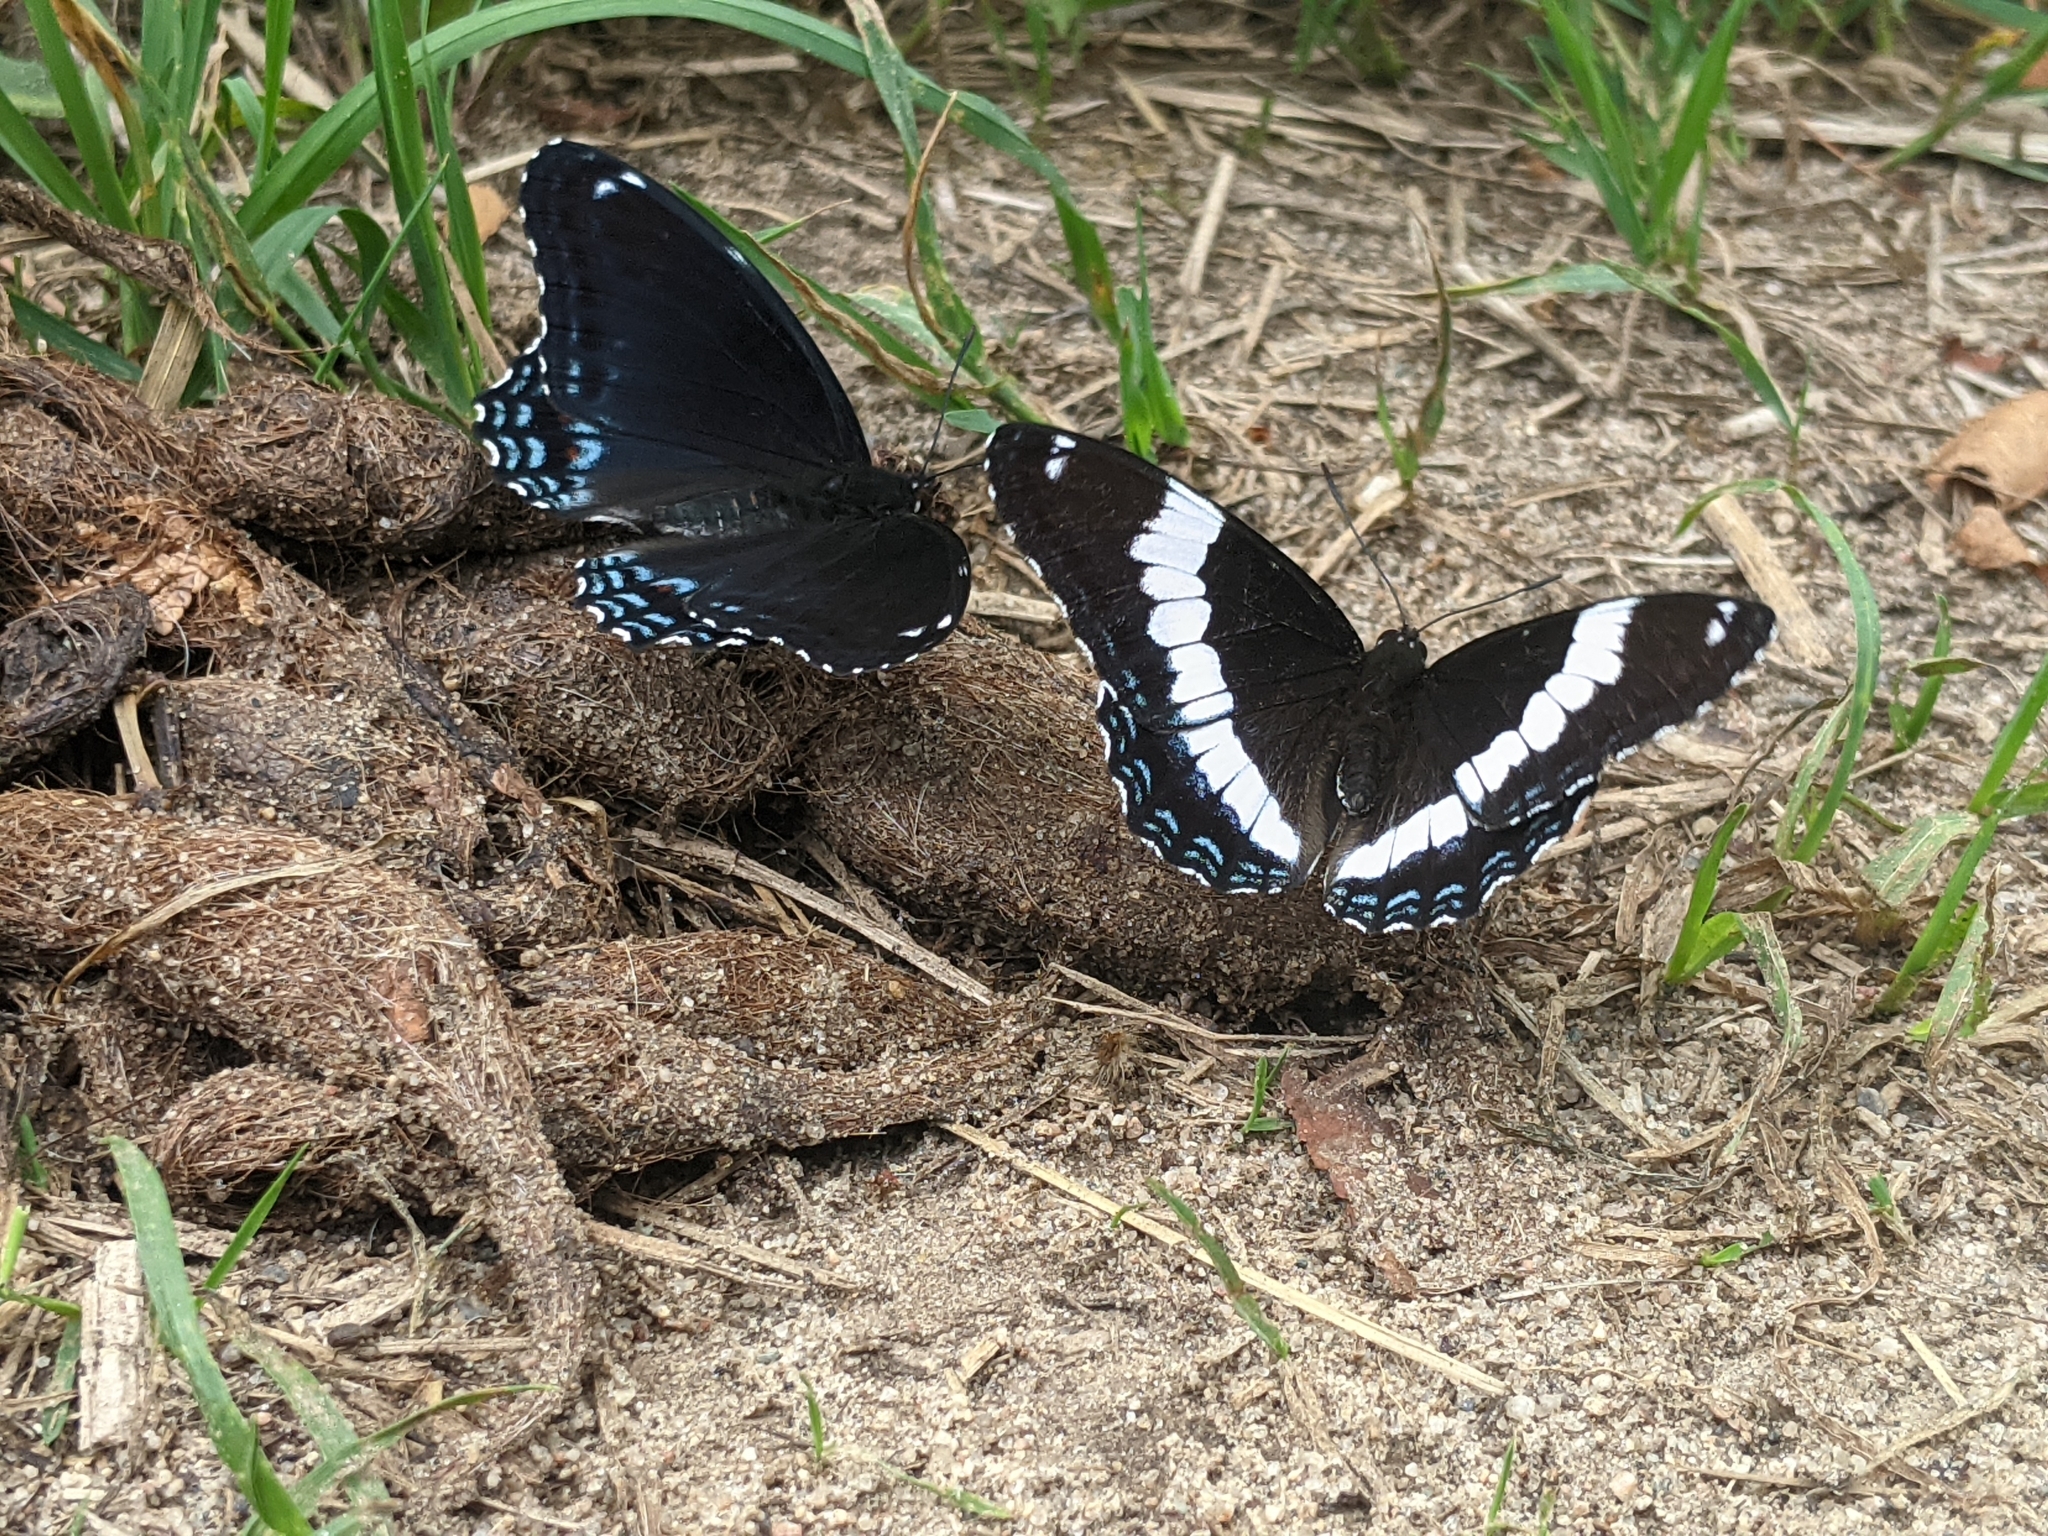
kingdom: Animalia
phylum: Arthropoda
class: Insecta
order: Lepidoptera
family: Nymphalidae
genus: Limenitis
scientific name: Limenitis astyanax
